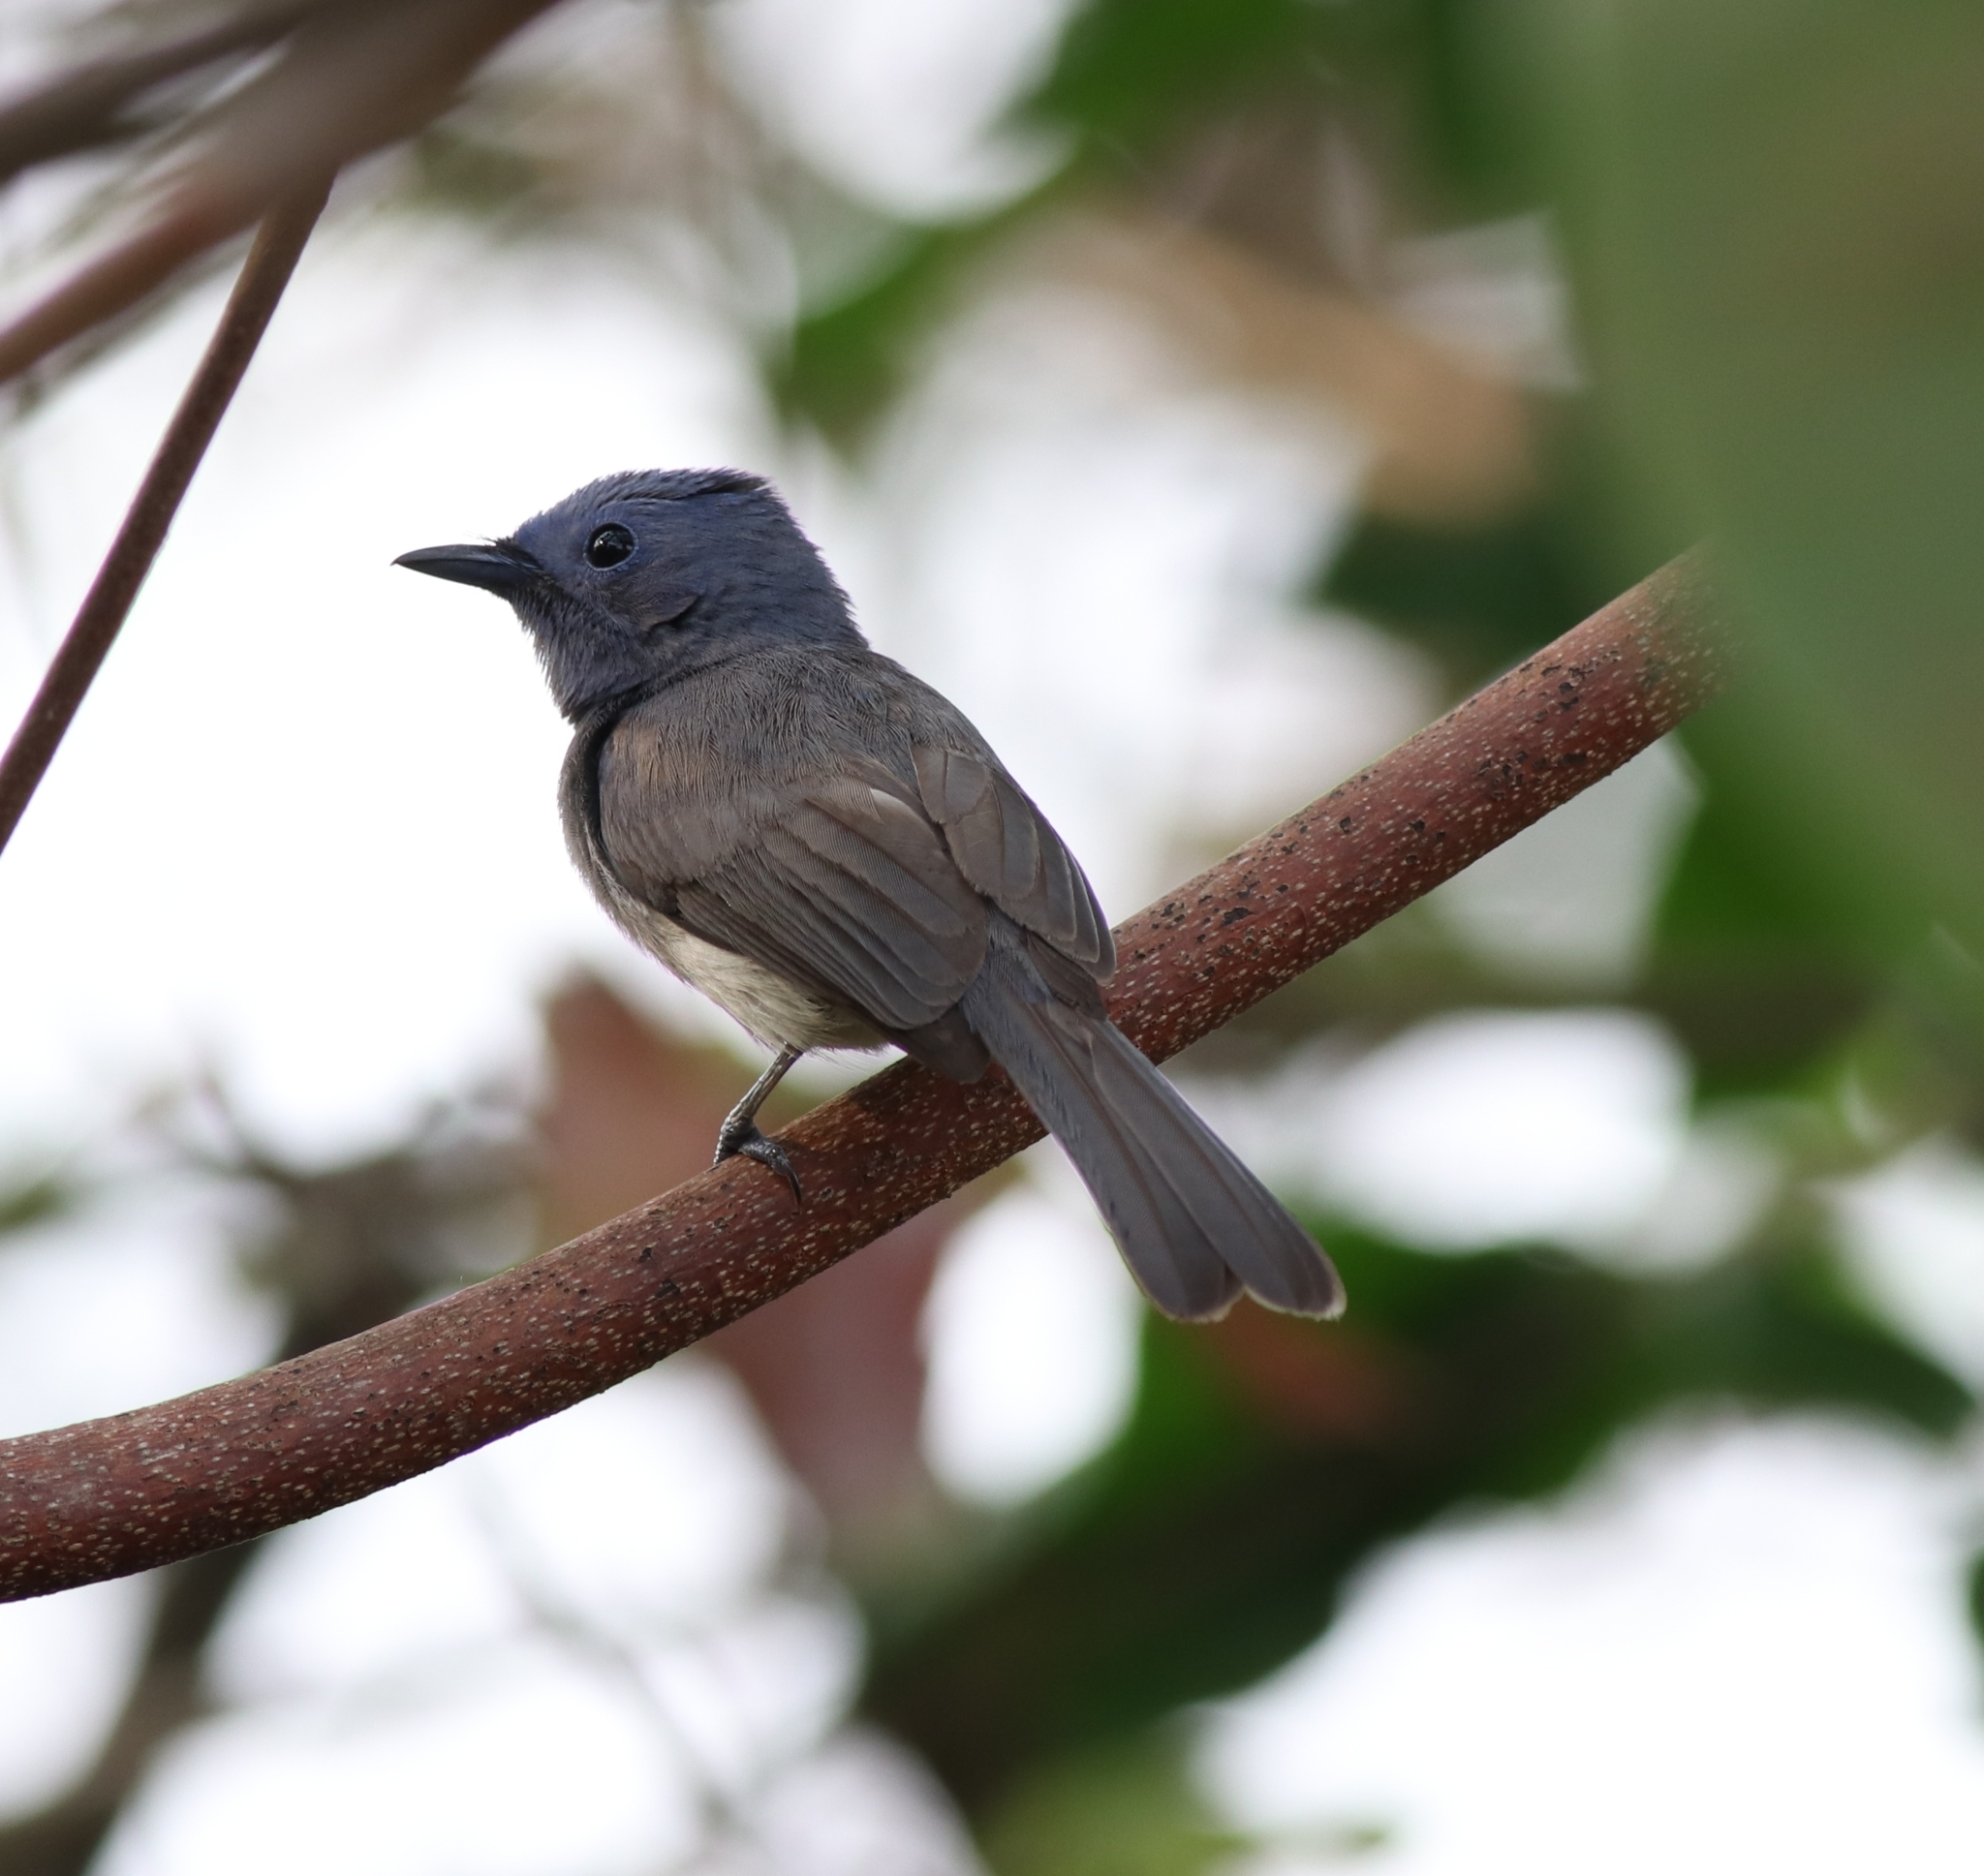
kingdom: Animalia
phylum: Chordata
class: Aves
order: Passeriformes
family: Monarchidae
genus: Hypothymis
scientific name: Hypothymis azurea
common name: Black-naped monarch
